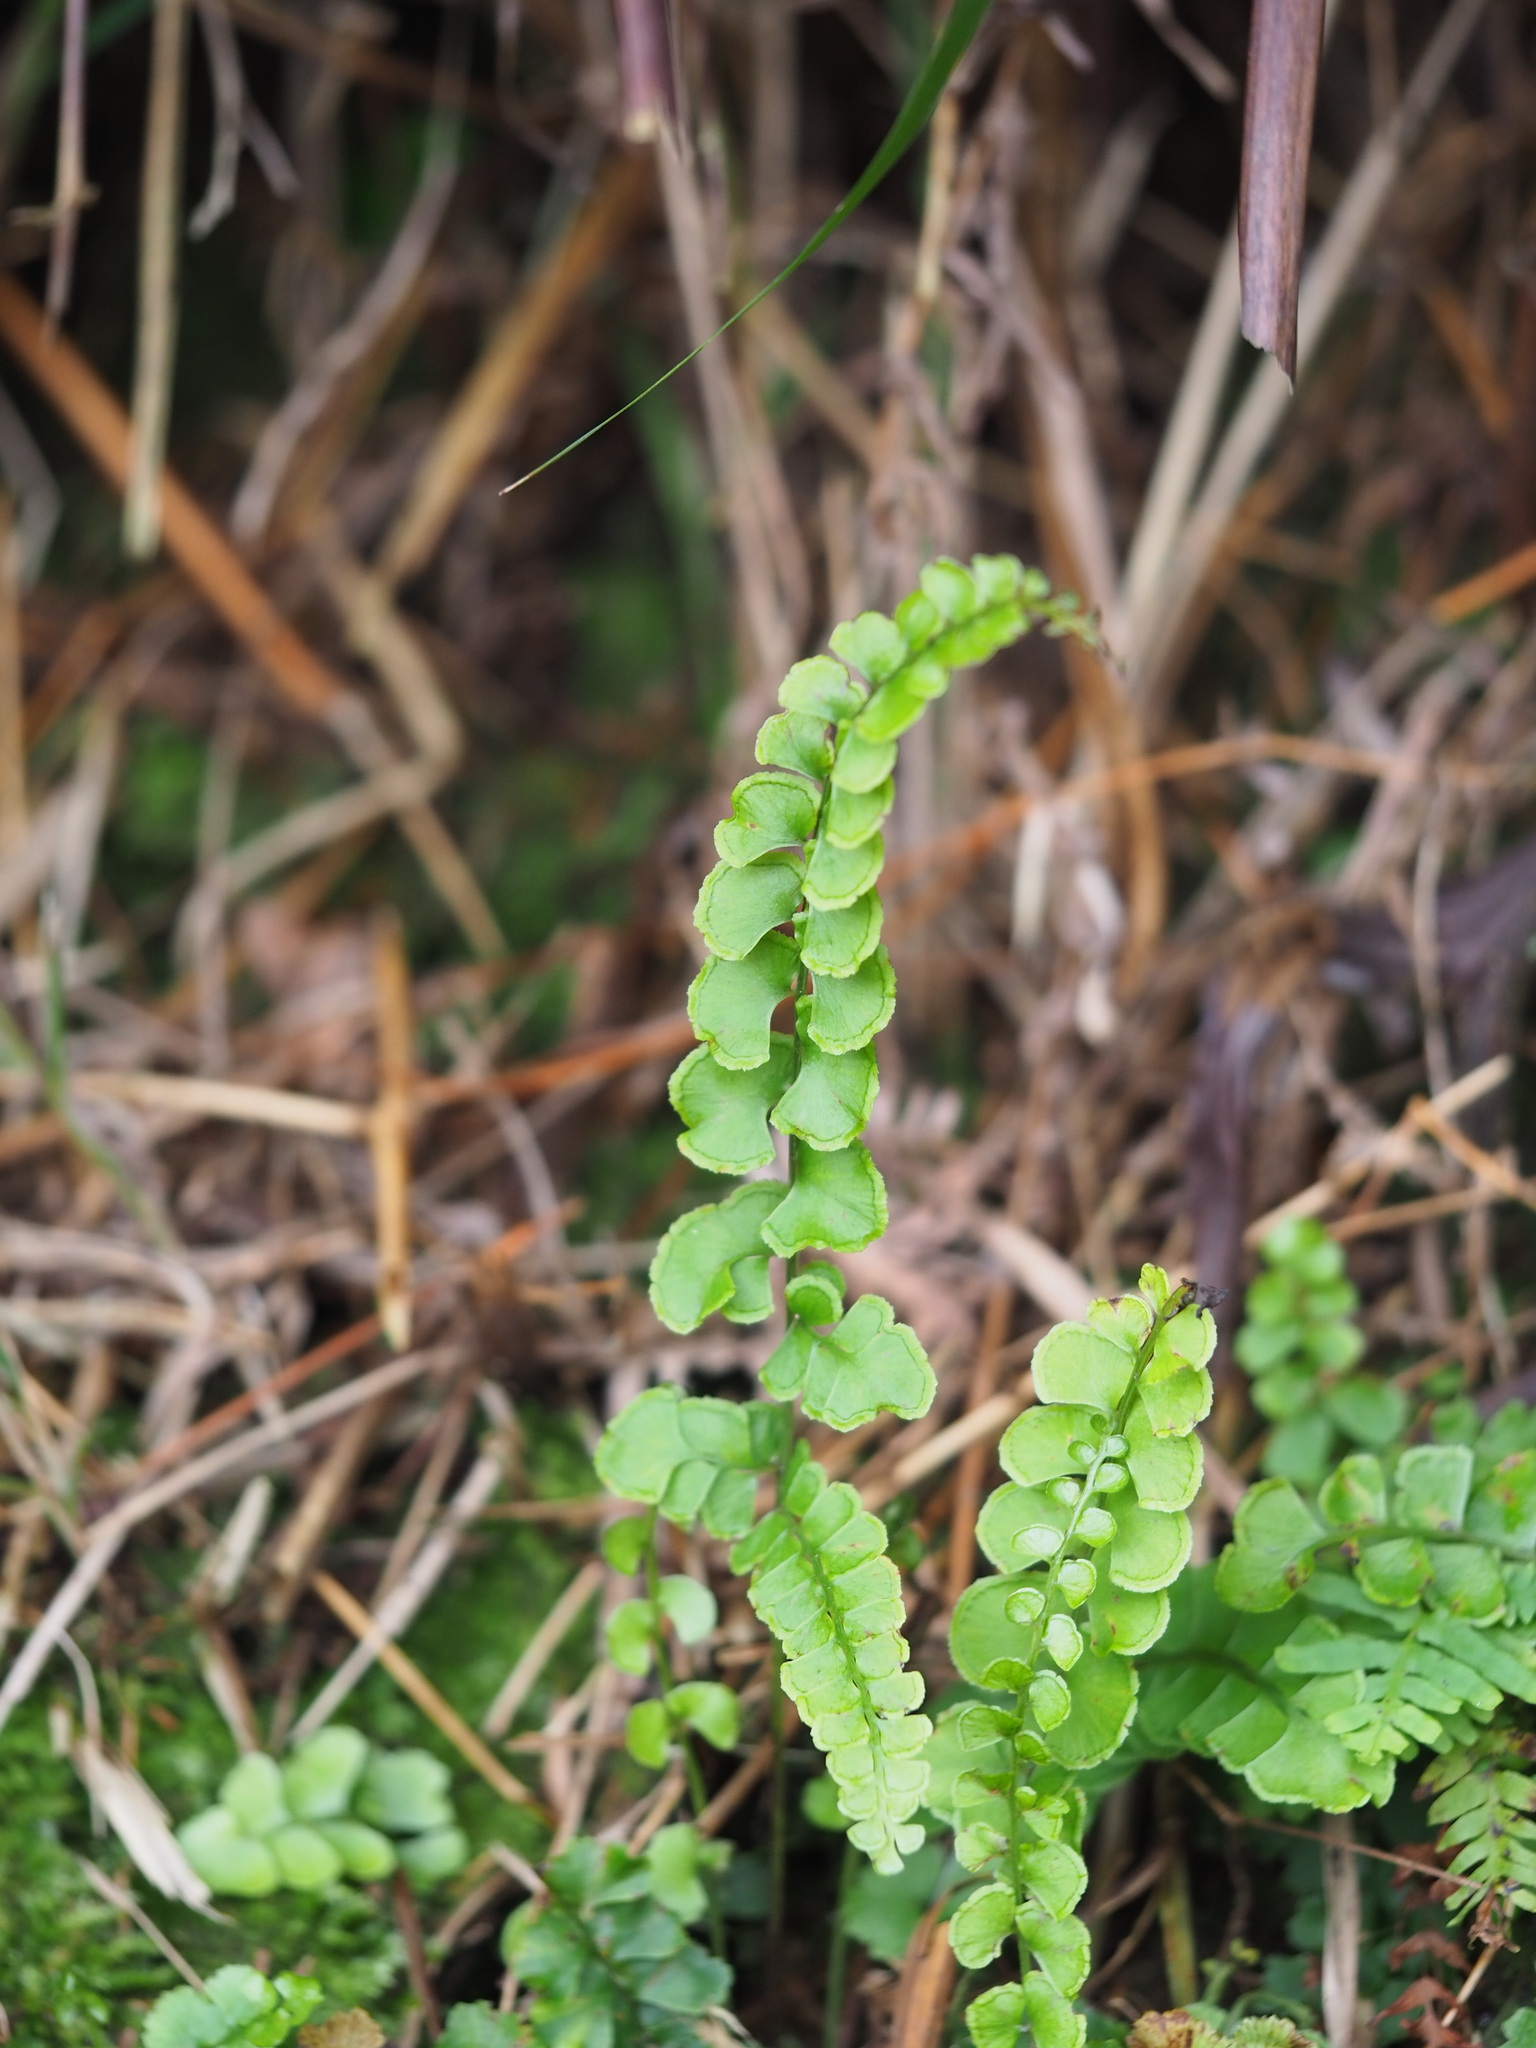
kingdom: Plantae
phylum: Tracheophyta
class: Polypodiopsida
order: Polypodiales
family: Lindsaeaceae
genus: Lindsaea
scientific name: Lindsaea orbiculata
